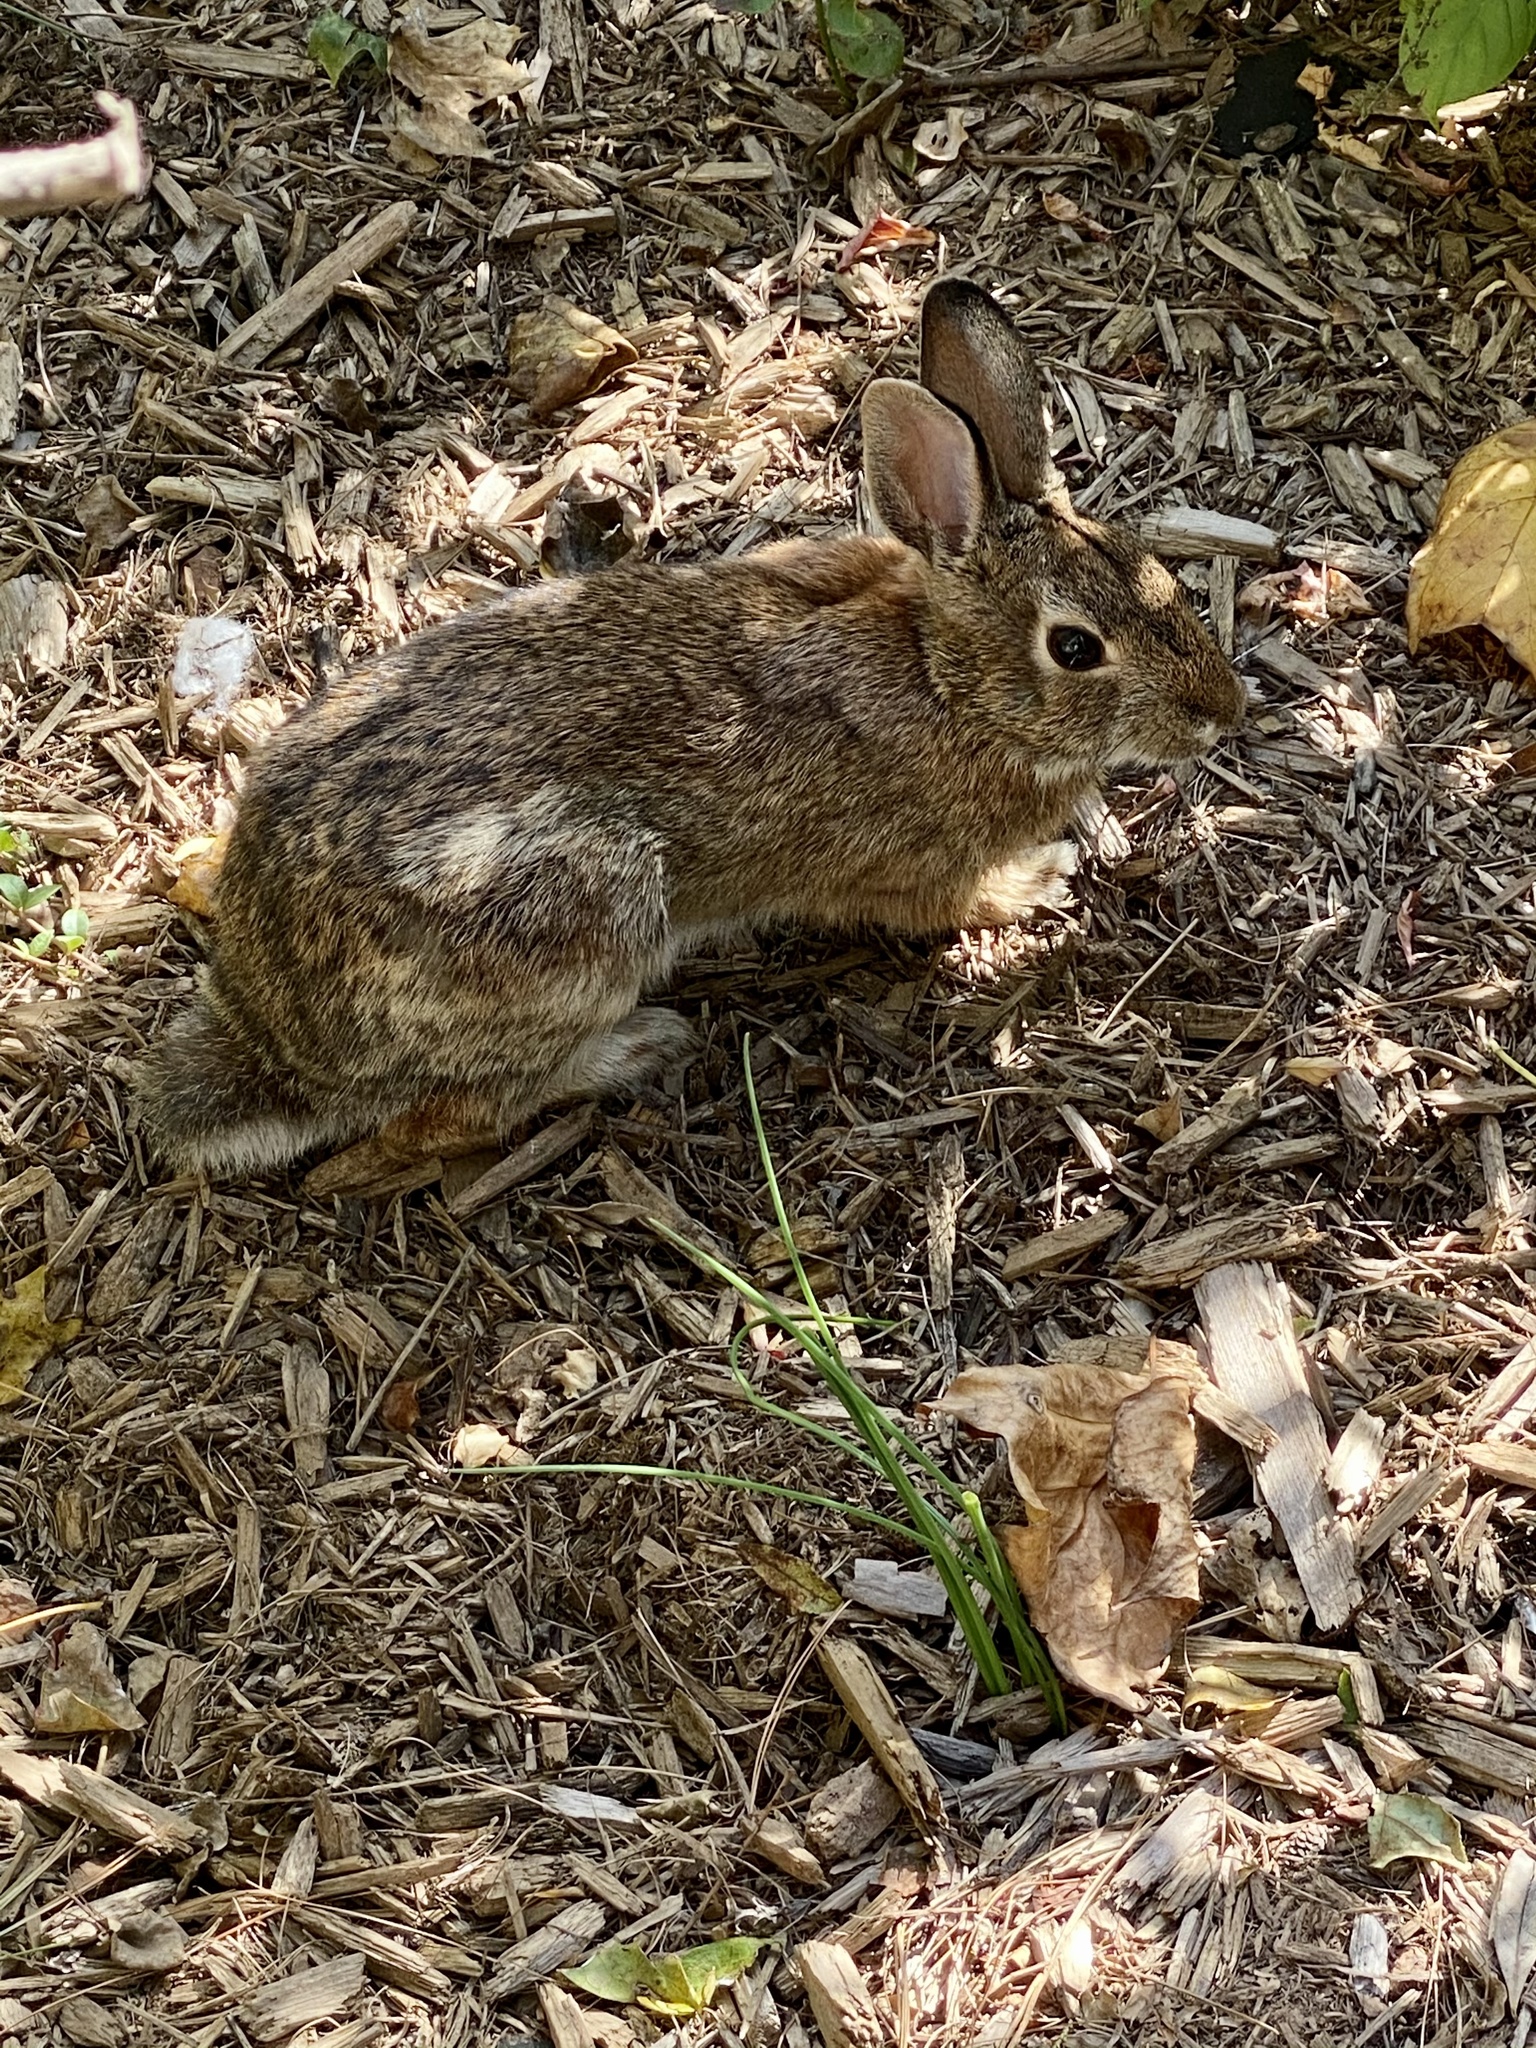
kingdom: Animalia
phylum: Chordata
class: Mammalia
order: Lagomorpha
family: Leporidae
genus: Sylvilagus
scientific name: Sylvilagus floridanus
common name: Eastern cottontail
